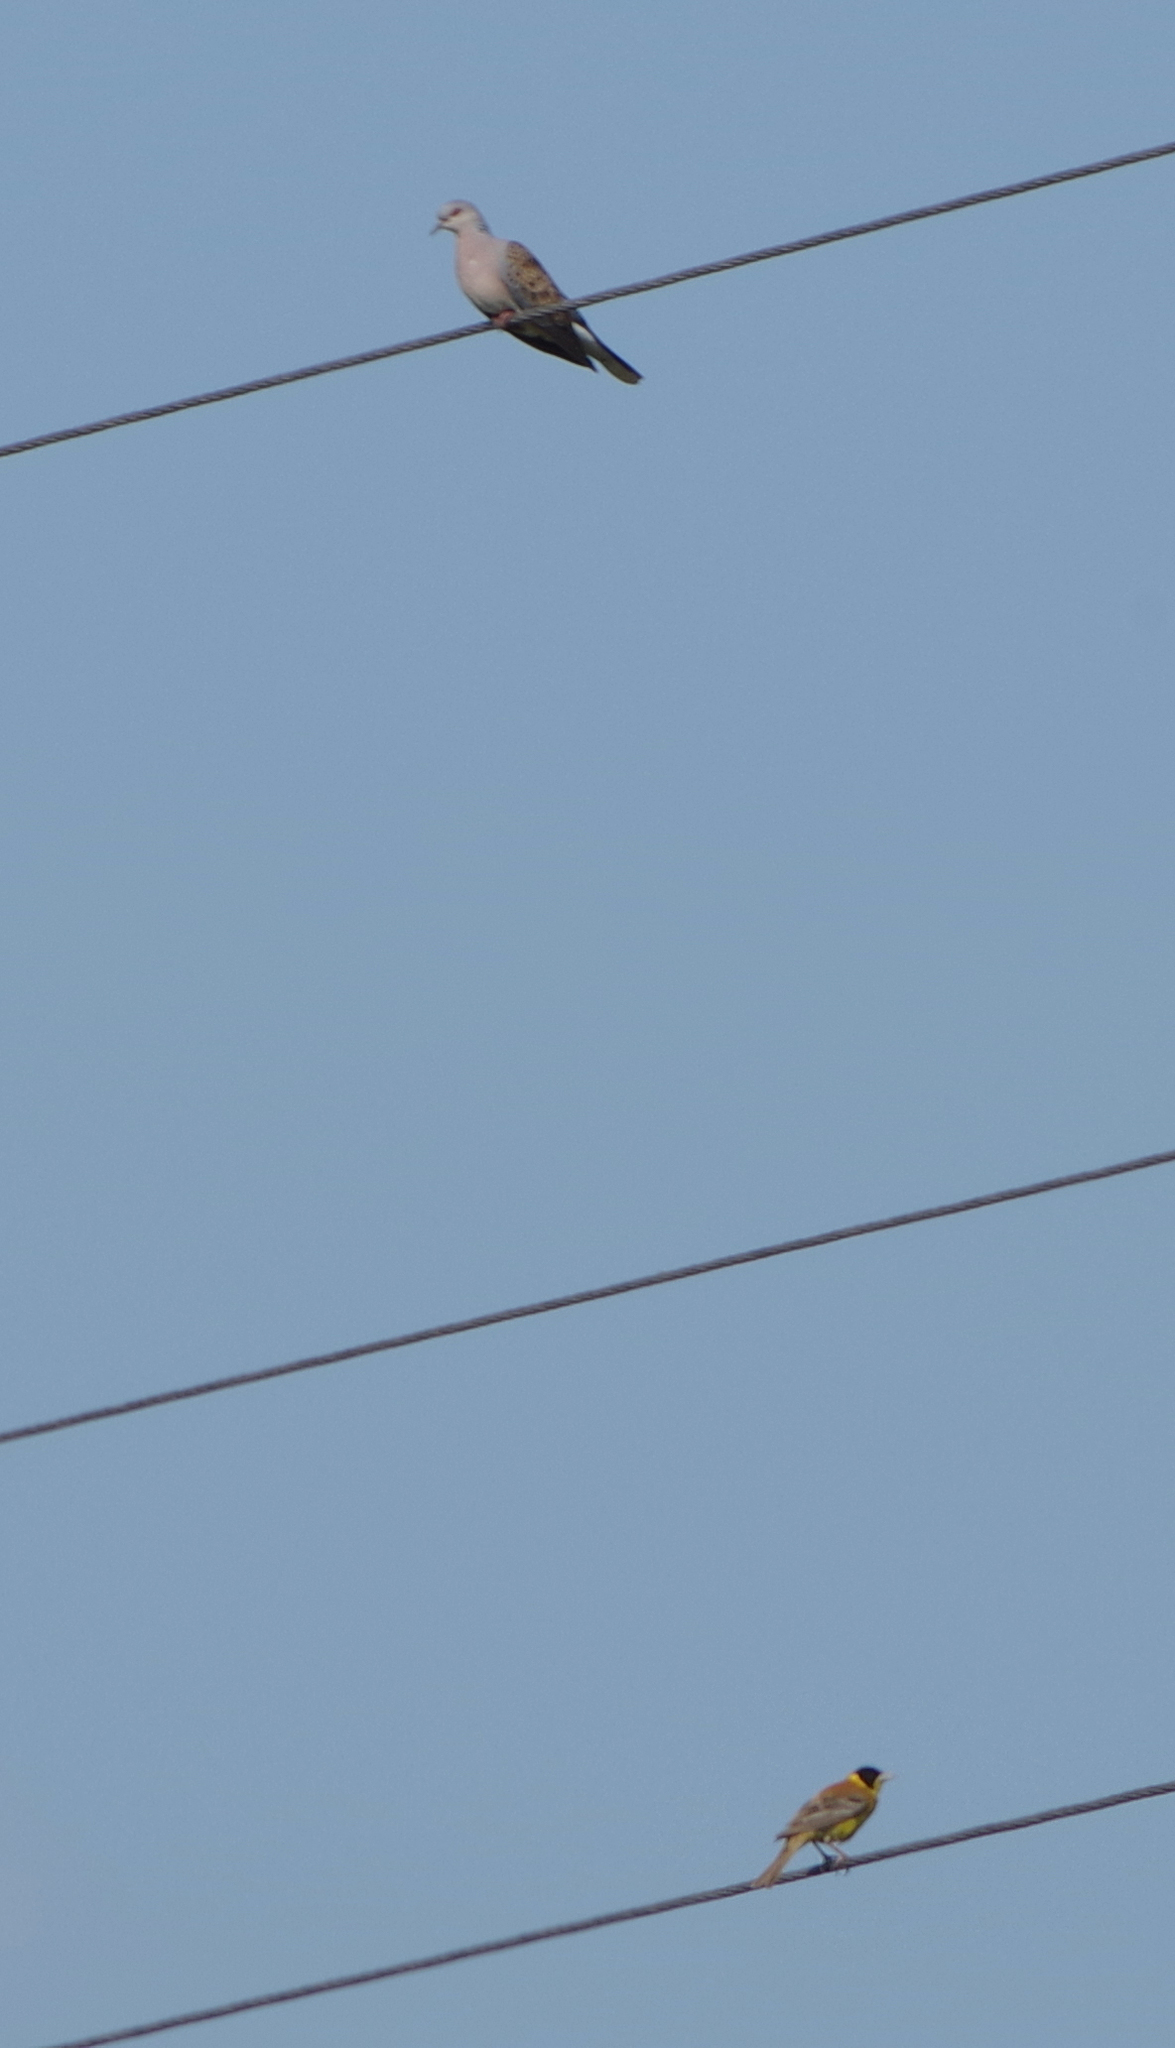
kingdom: Animalia
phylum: Chordata
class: Aves
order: Passeriformes
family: Emberizidae
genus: Emberiza
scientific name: Emberiza melanocephala
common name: Black-headed bunting
